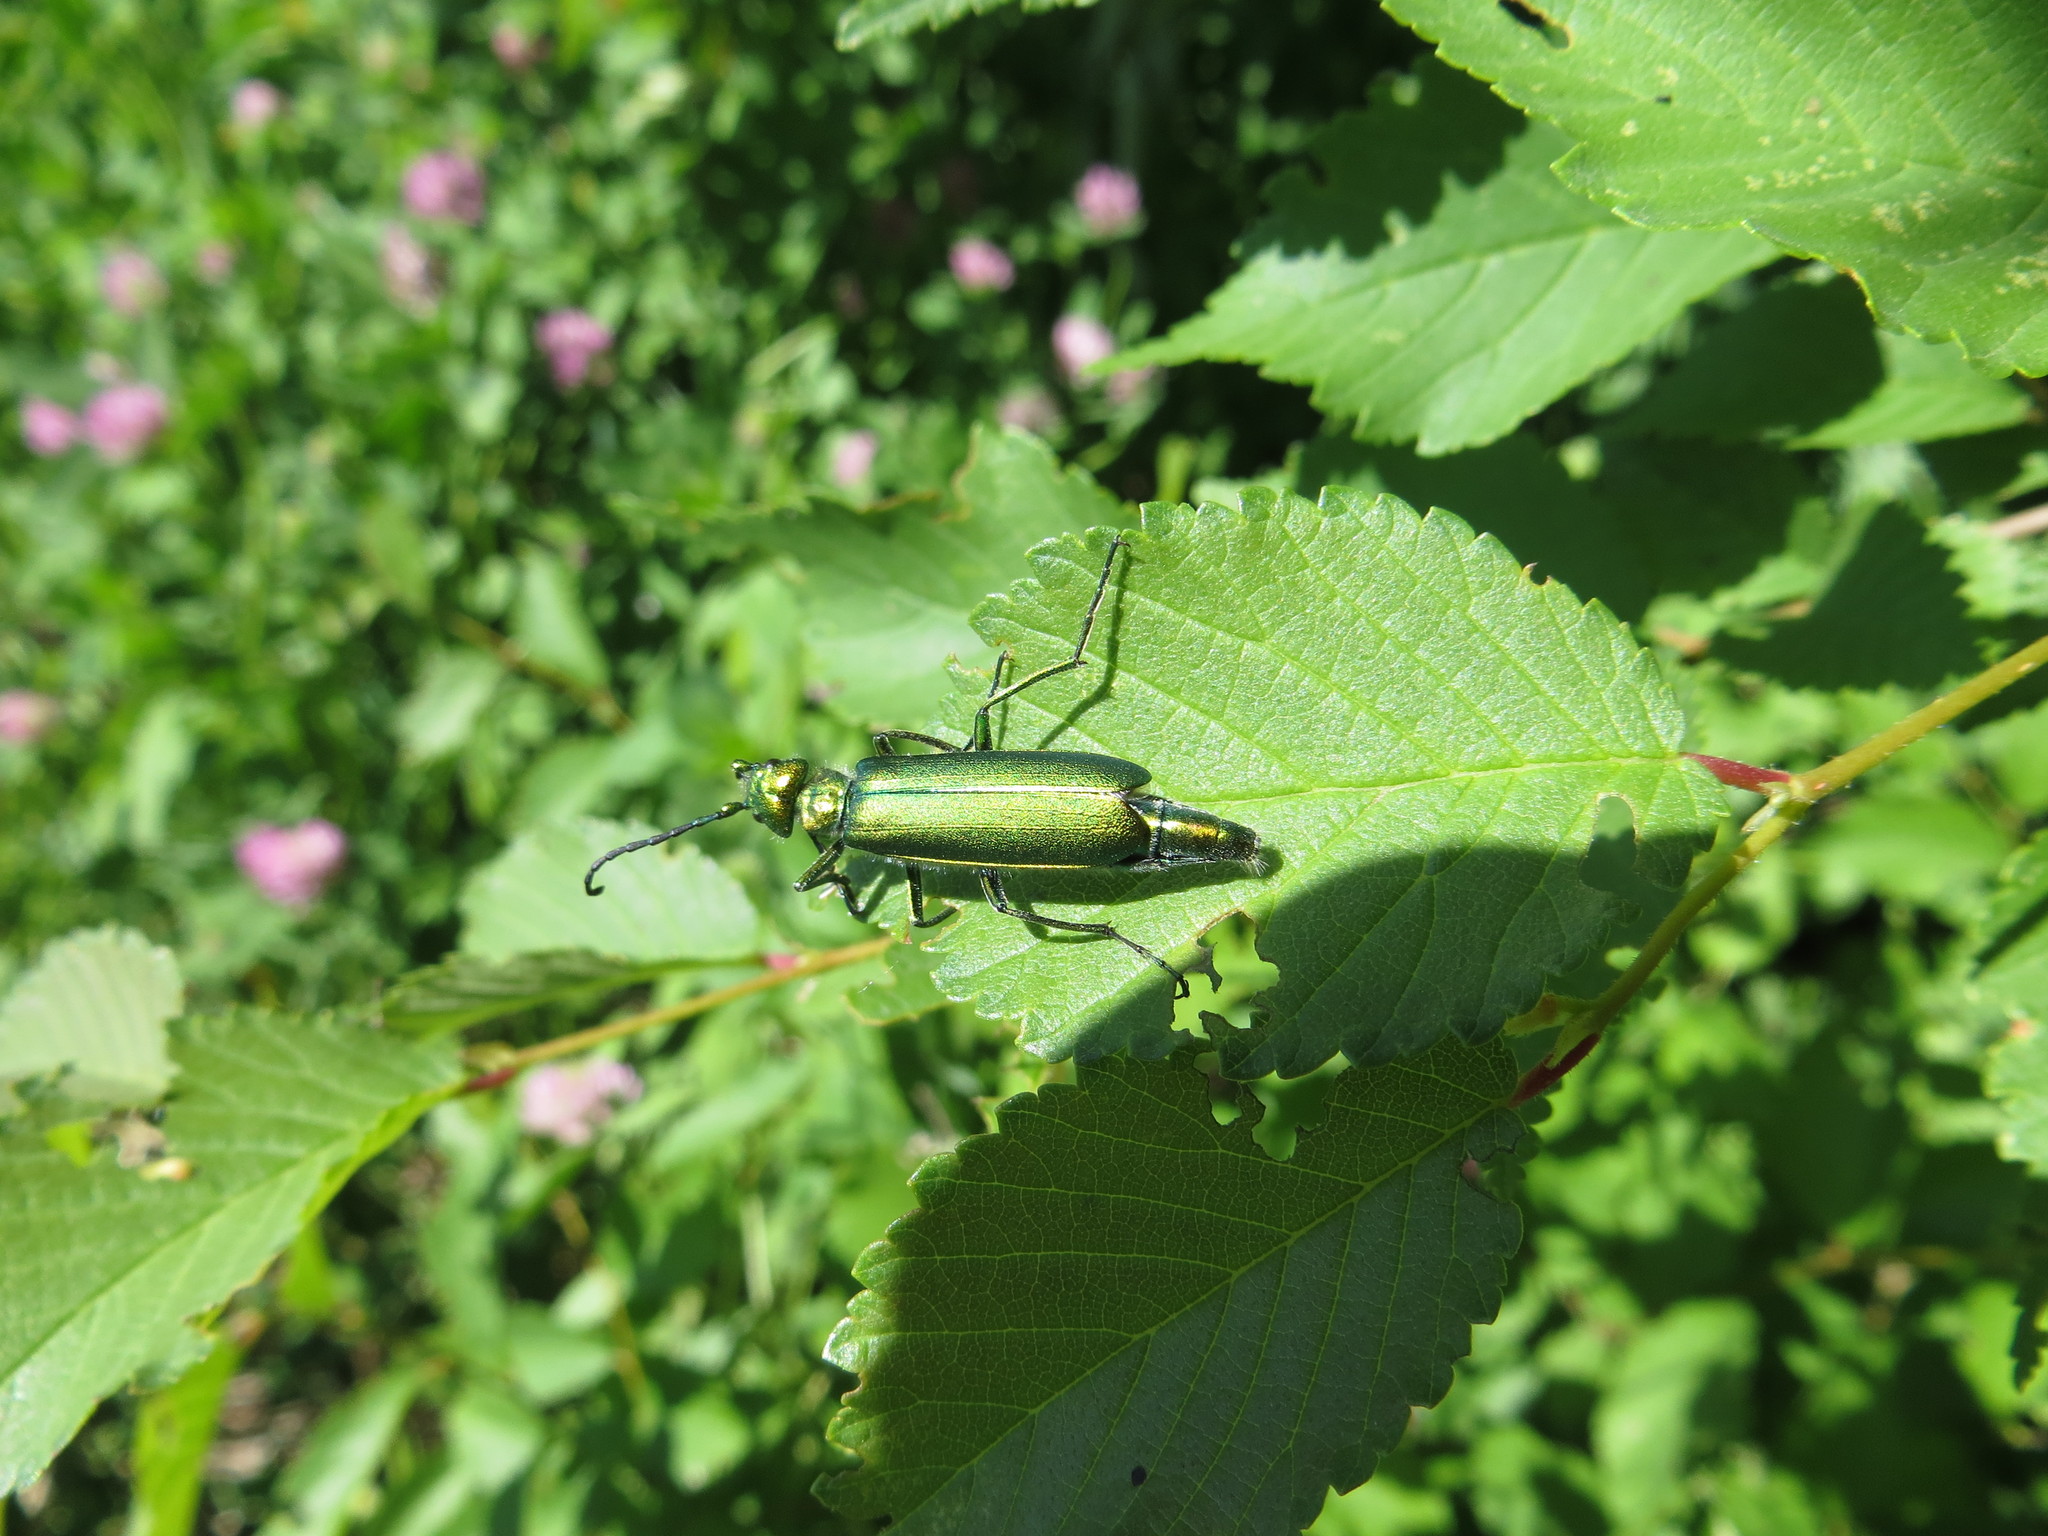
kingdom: Animalia
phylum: Arthropoda
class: Insecta
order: Coleoptera
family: Meloidae
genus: Lytta
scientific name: Lytta vesicatoria
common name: Spanish fly
